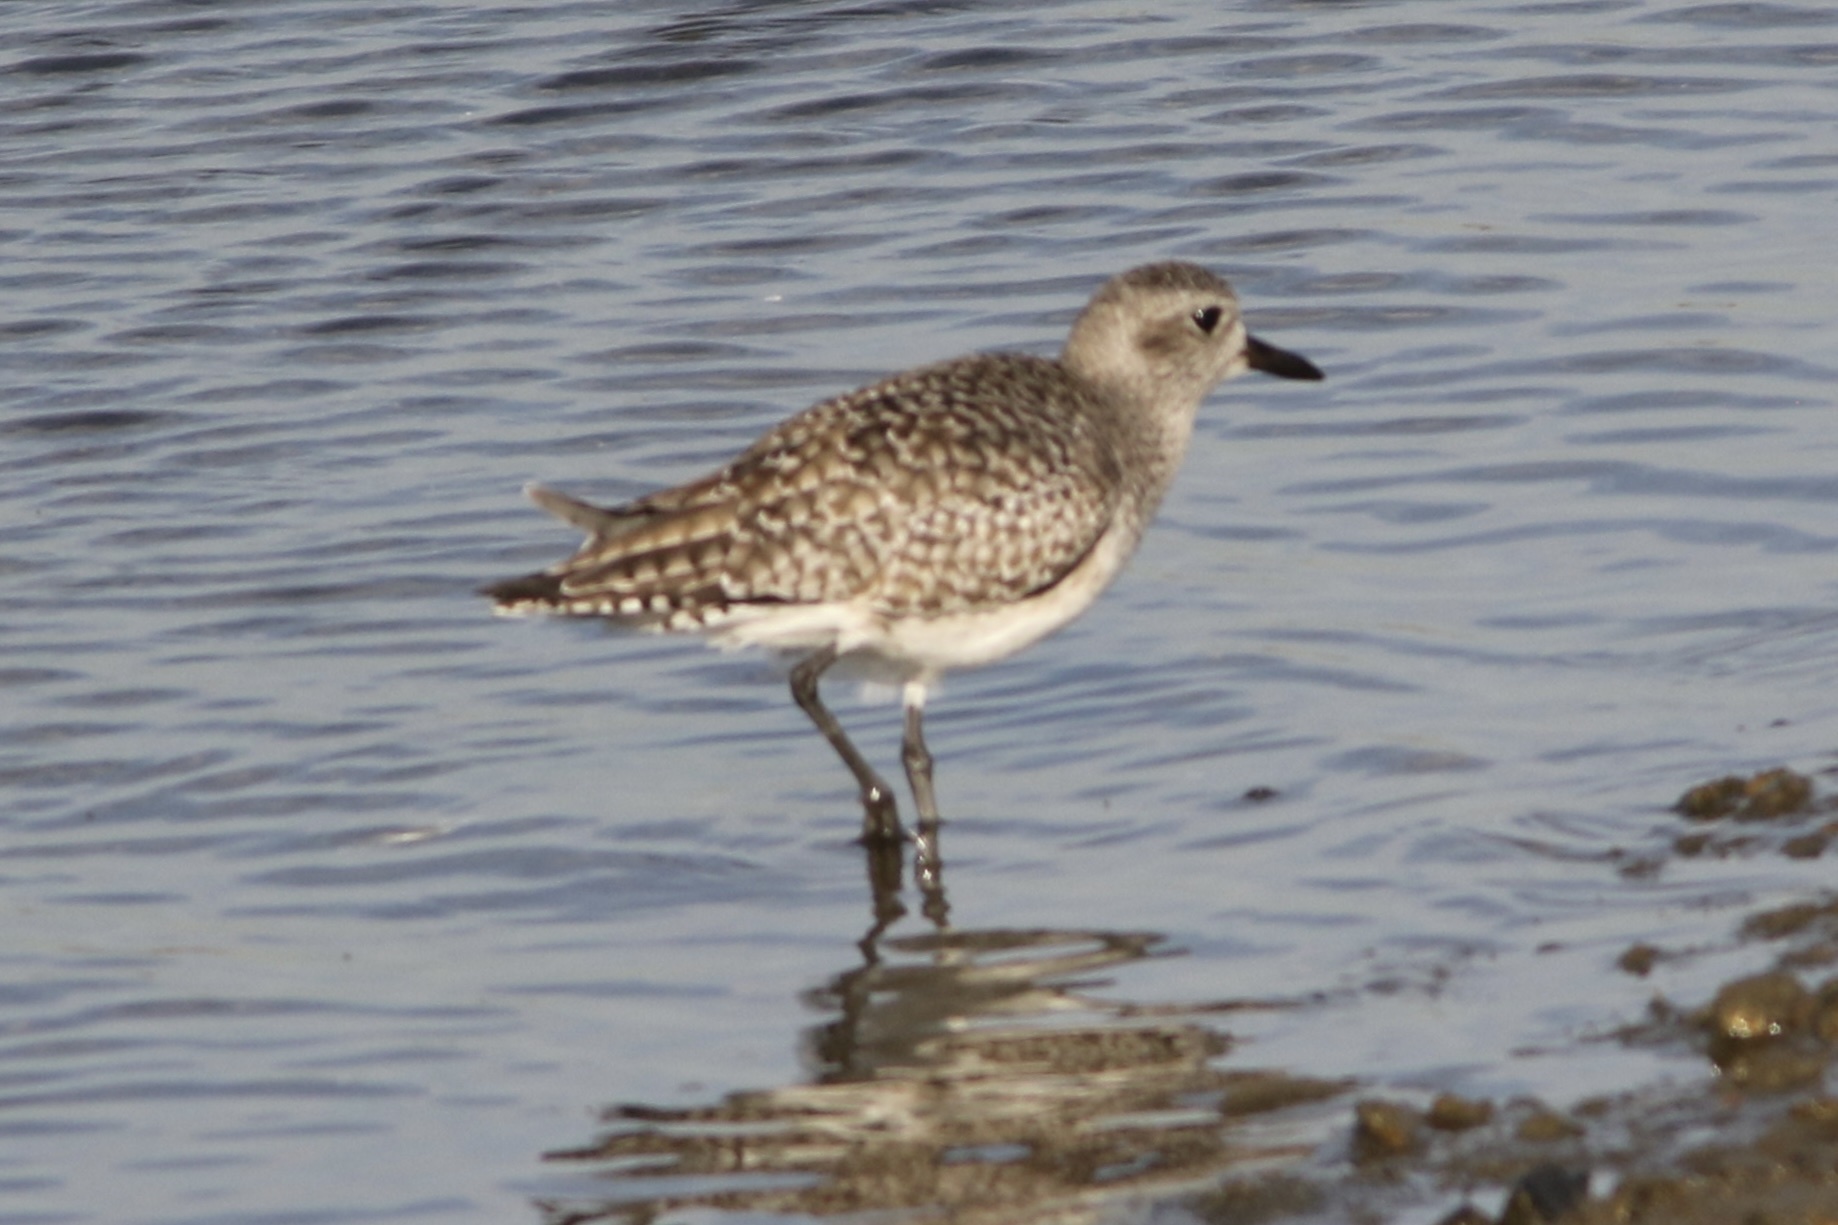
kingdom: Animalia
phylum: Chordata
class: Aves
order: Charadriiformes
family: Charadriidae
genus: Pluvialis
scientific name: Pluvialis squatarola
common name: Grey plover
